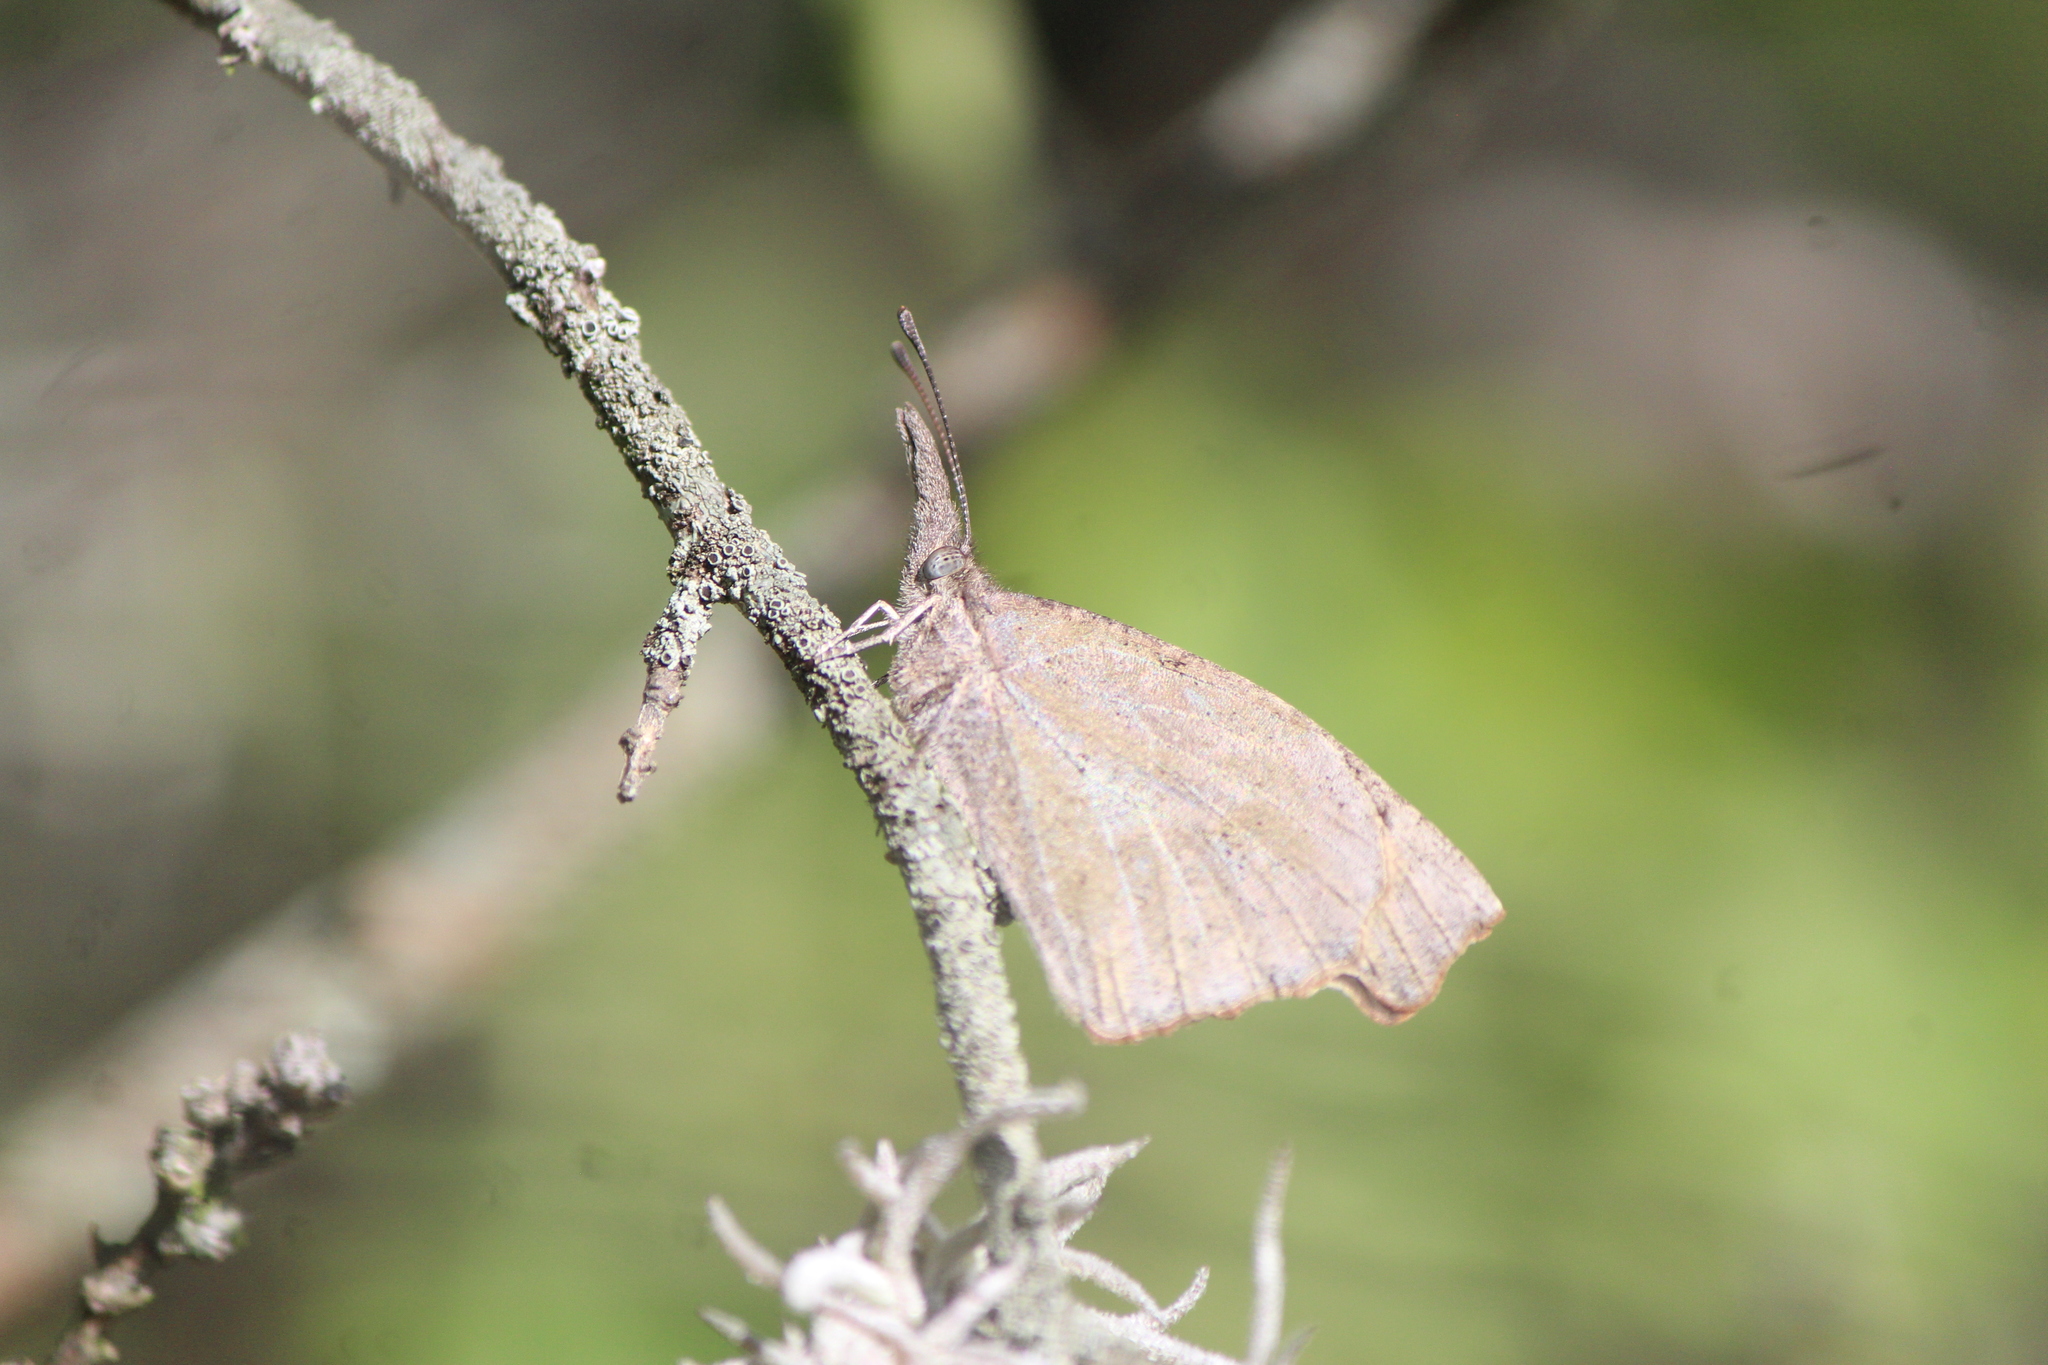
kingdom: Animalia
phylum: Arthropoda
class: Insecta
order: Lepidoptera
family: Nymphalidae
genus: Libytheana
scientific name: Libytheana carinenta
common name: American snout
